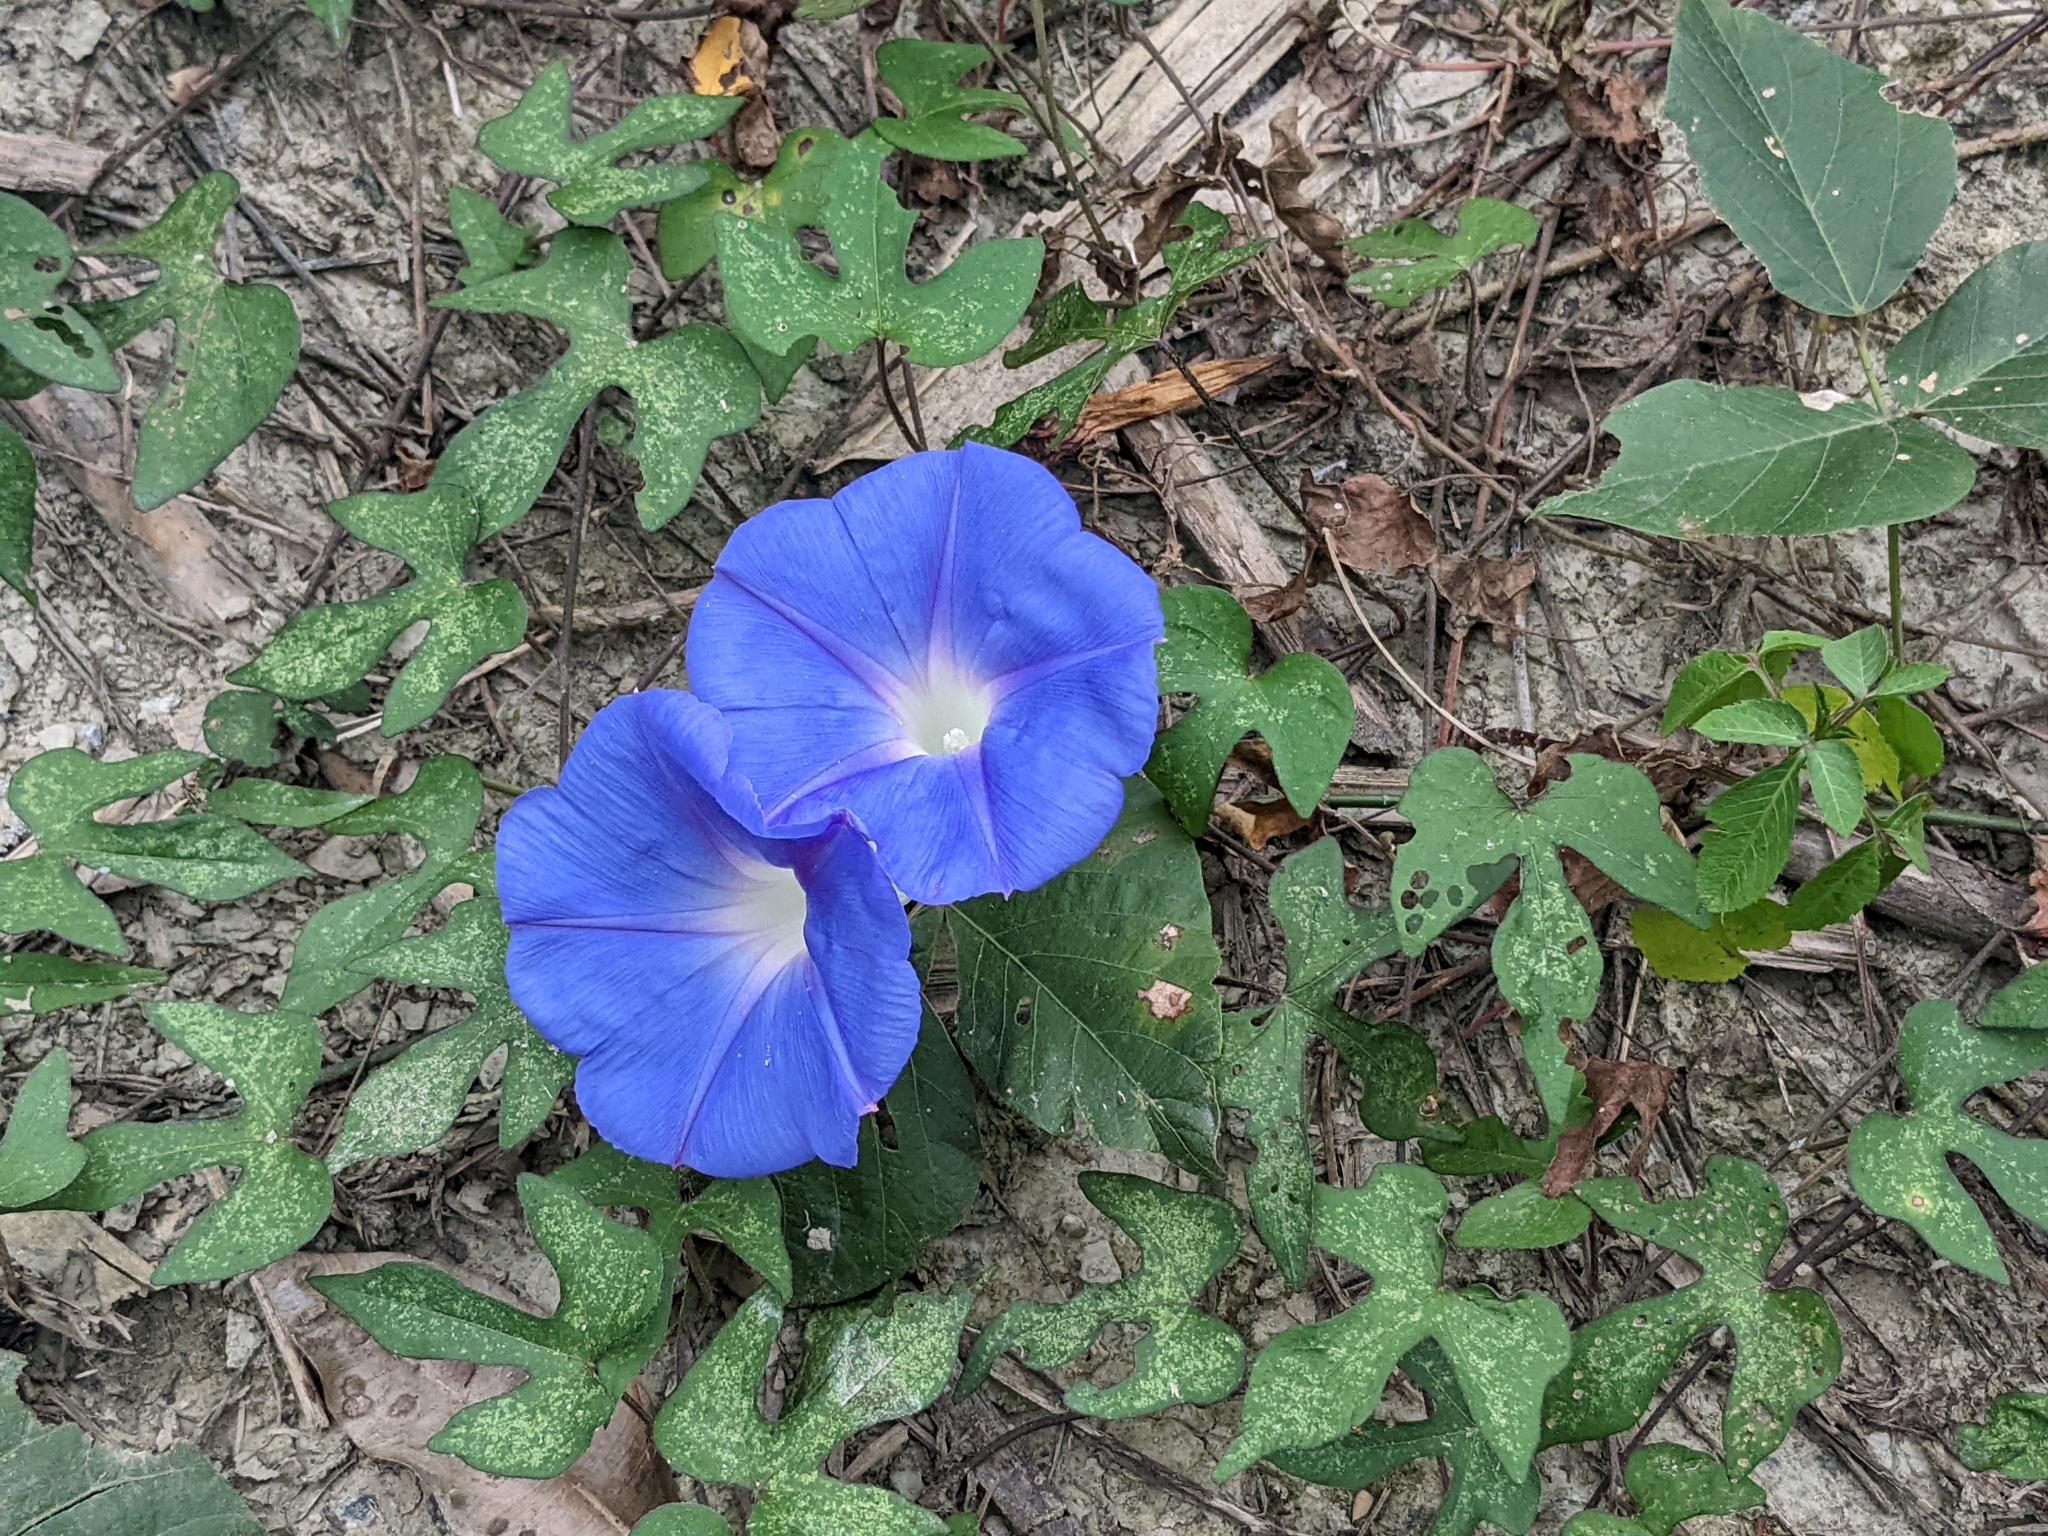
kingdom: Plantae
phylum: Tracheophyta
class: Magnoliopsida
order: Solanales
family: Convolvulaceae
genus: Ipomoea
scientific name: Ipomoea indica
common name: Blue dawnflower
